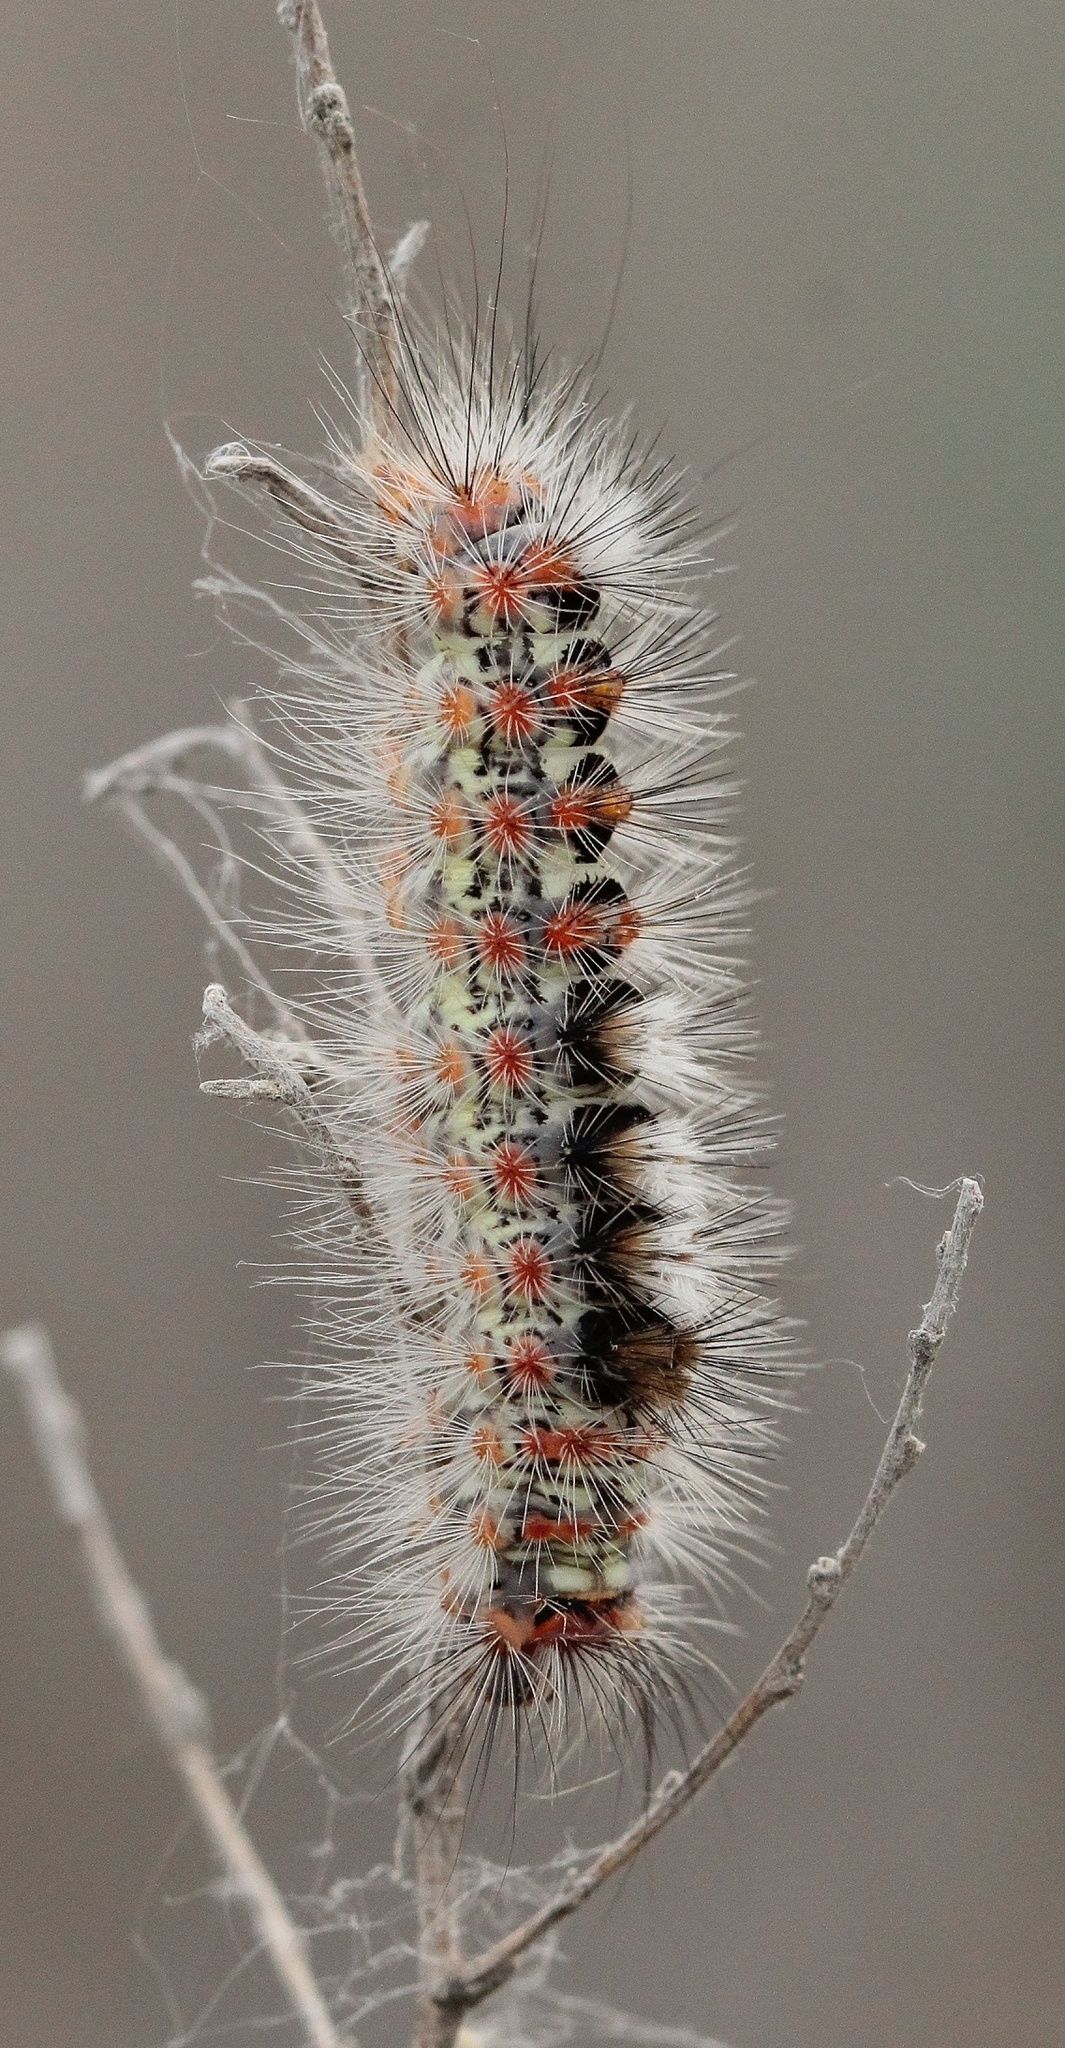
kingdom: Animalia
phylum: Arthropoda
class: Insecta
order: Lepidoptera
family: Erebidae
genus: Orgyia
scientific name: Orgyia dubia
